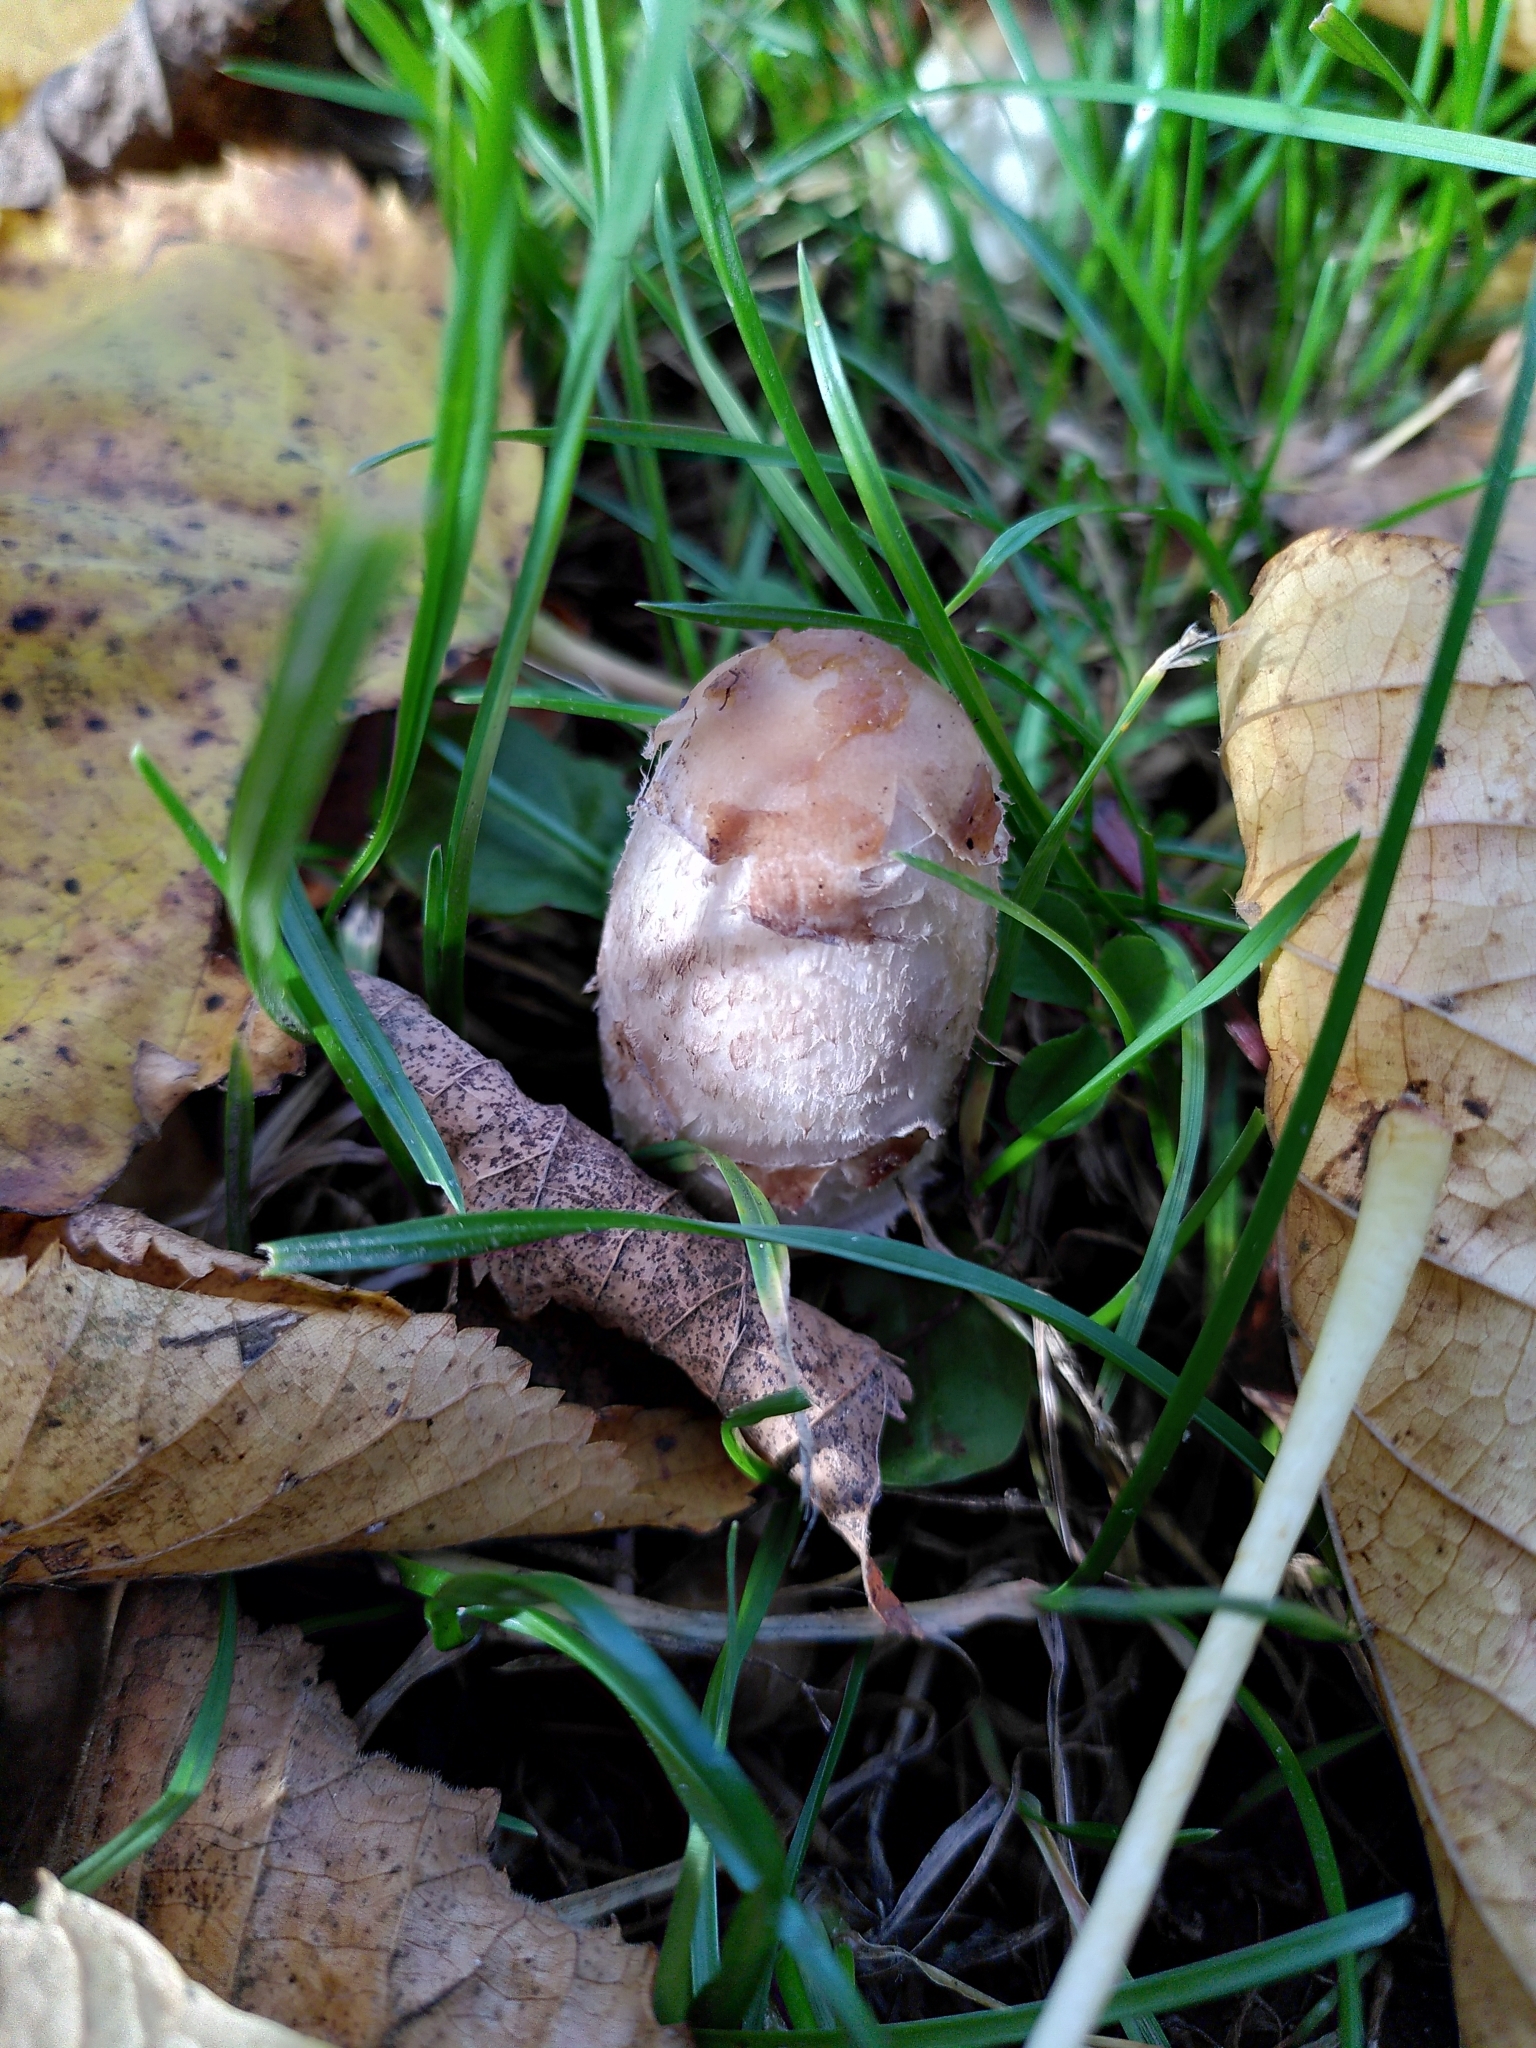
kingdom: Fungi
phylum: Basidiomycota
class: Agaricomycetes
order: Agaricales
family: Agaricaceae
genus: Coprinus
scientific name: Coprinus comatus
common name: Lawyer's wig
